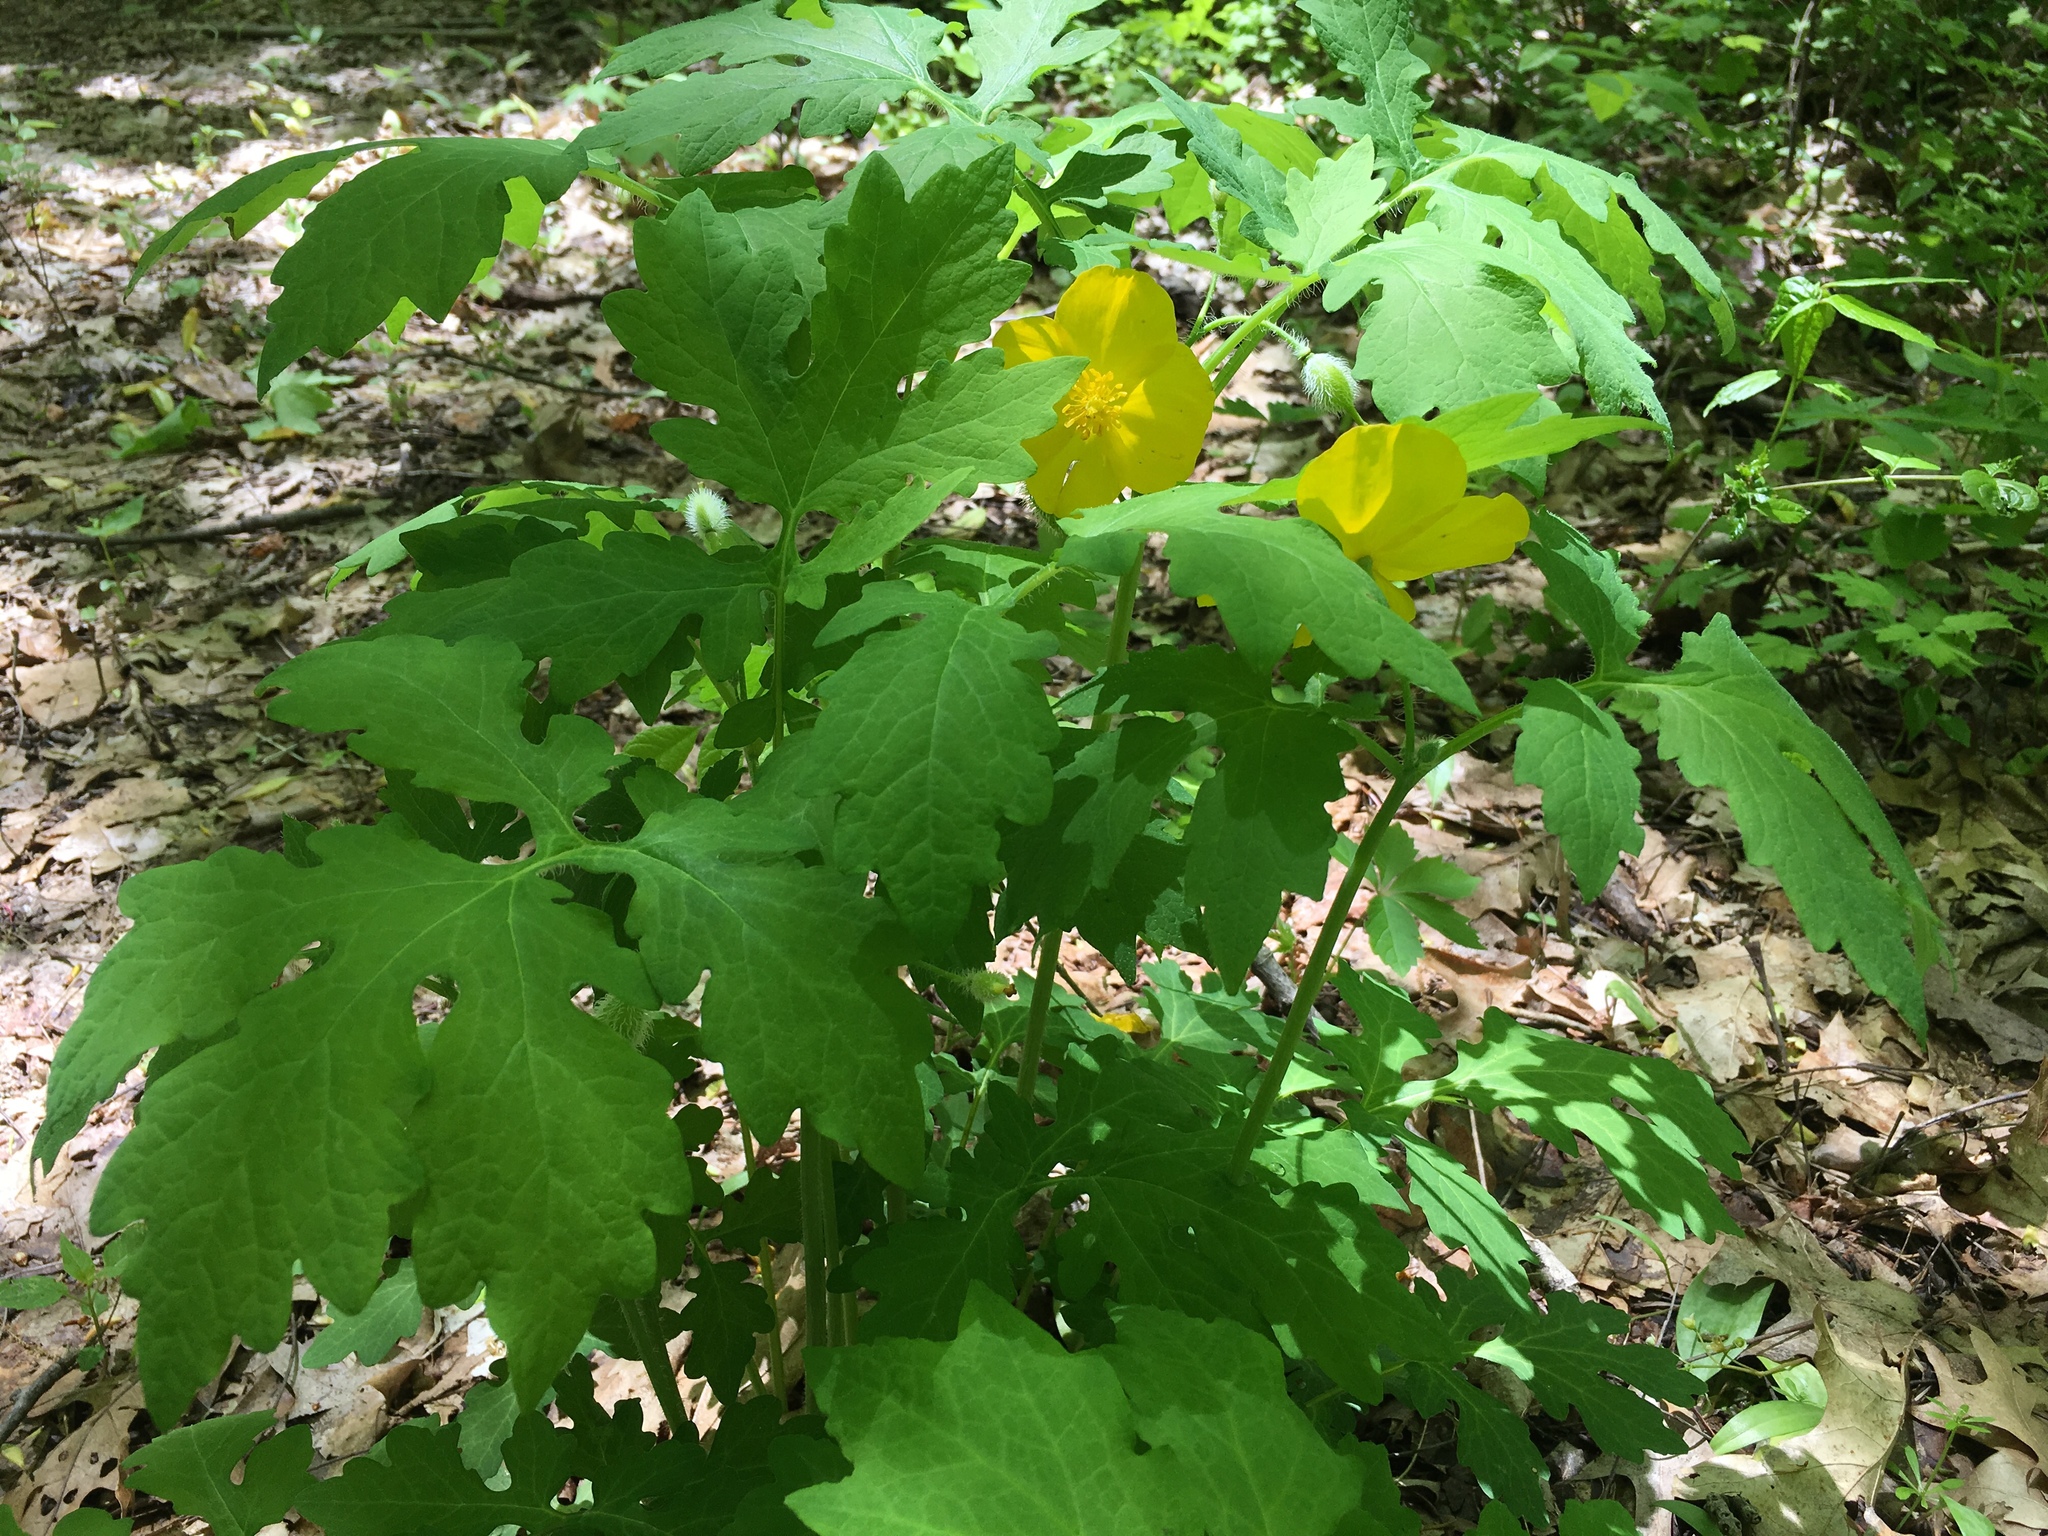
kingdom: Plantae
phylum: Tracheophyta
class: Magnoliopsida
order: Ranunculales
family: Papaveraceae
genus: Stylophorum
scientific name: Stylophorum diphyllum
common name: Celandine poppy
